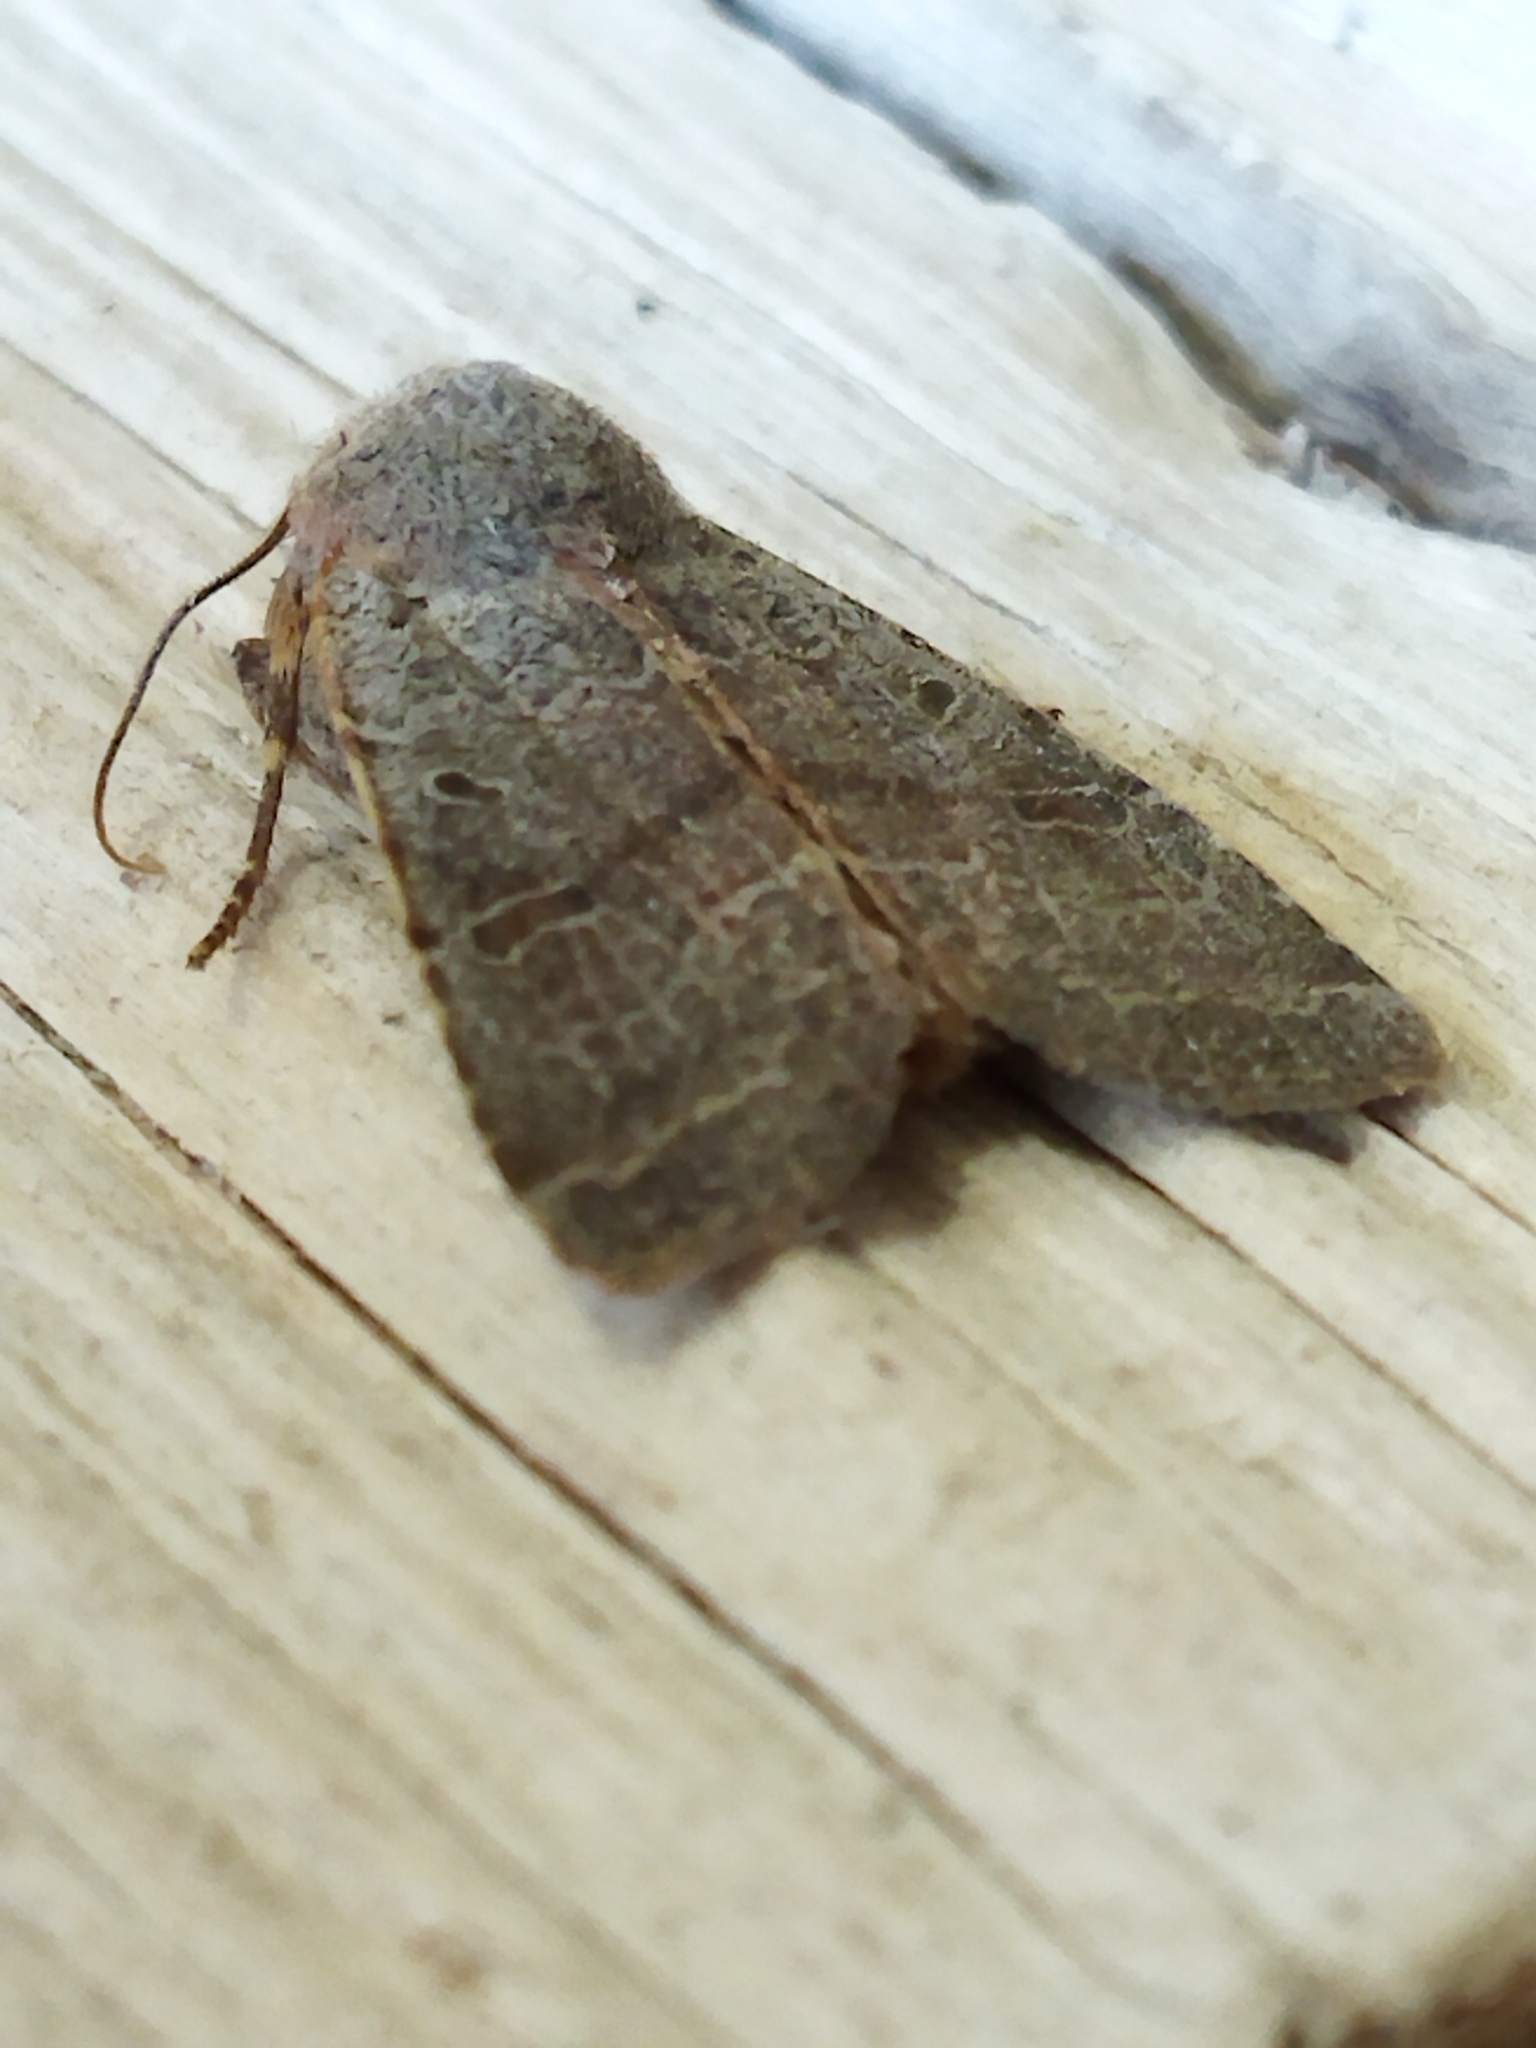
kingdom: Animalia
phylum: Arthropoda
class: Insecta
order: Lepidoptera
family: Noctuidae
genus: Agrochola
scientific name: Agrochola lychnidis
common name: Beaded chestnut
